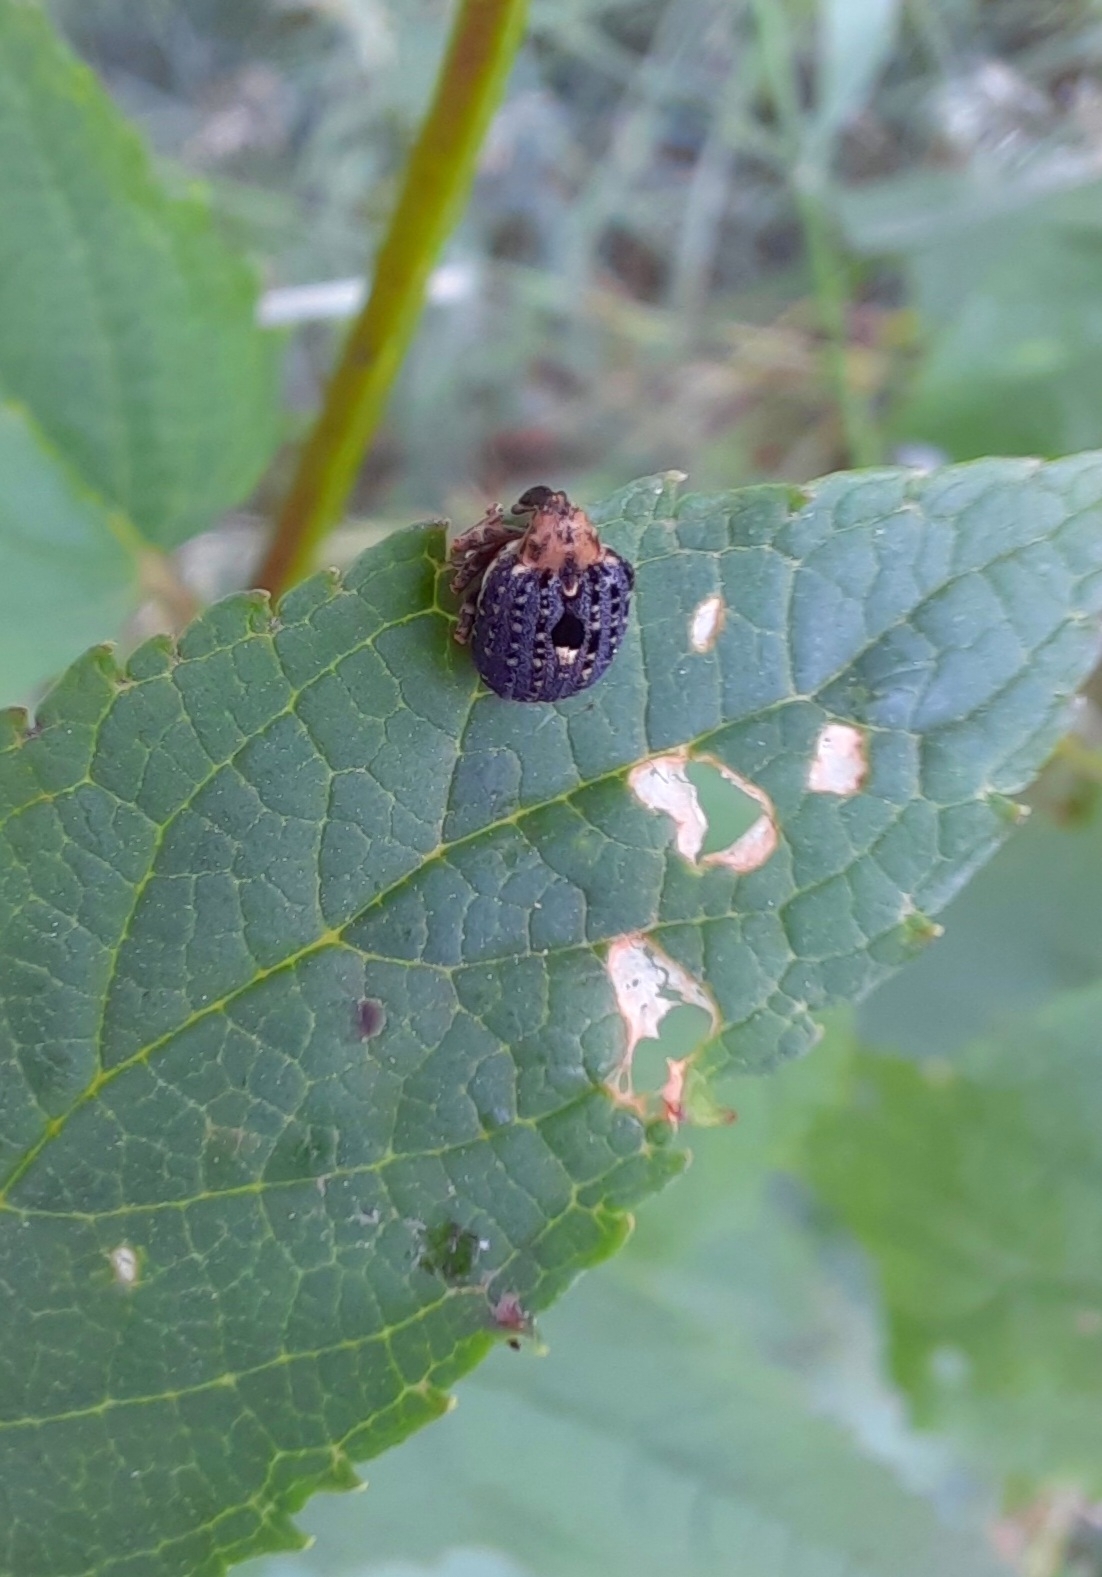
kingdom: Animalia
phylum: Arthropoda
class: Insecta
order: Coleoptera
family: Curculionidae
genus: Cionus
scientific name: Cionus scrophulariae
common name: Common figwort weevil
